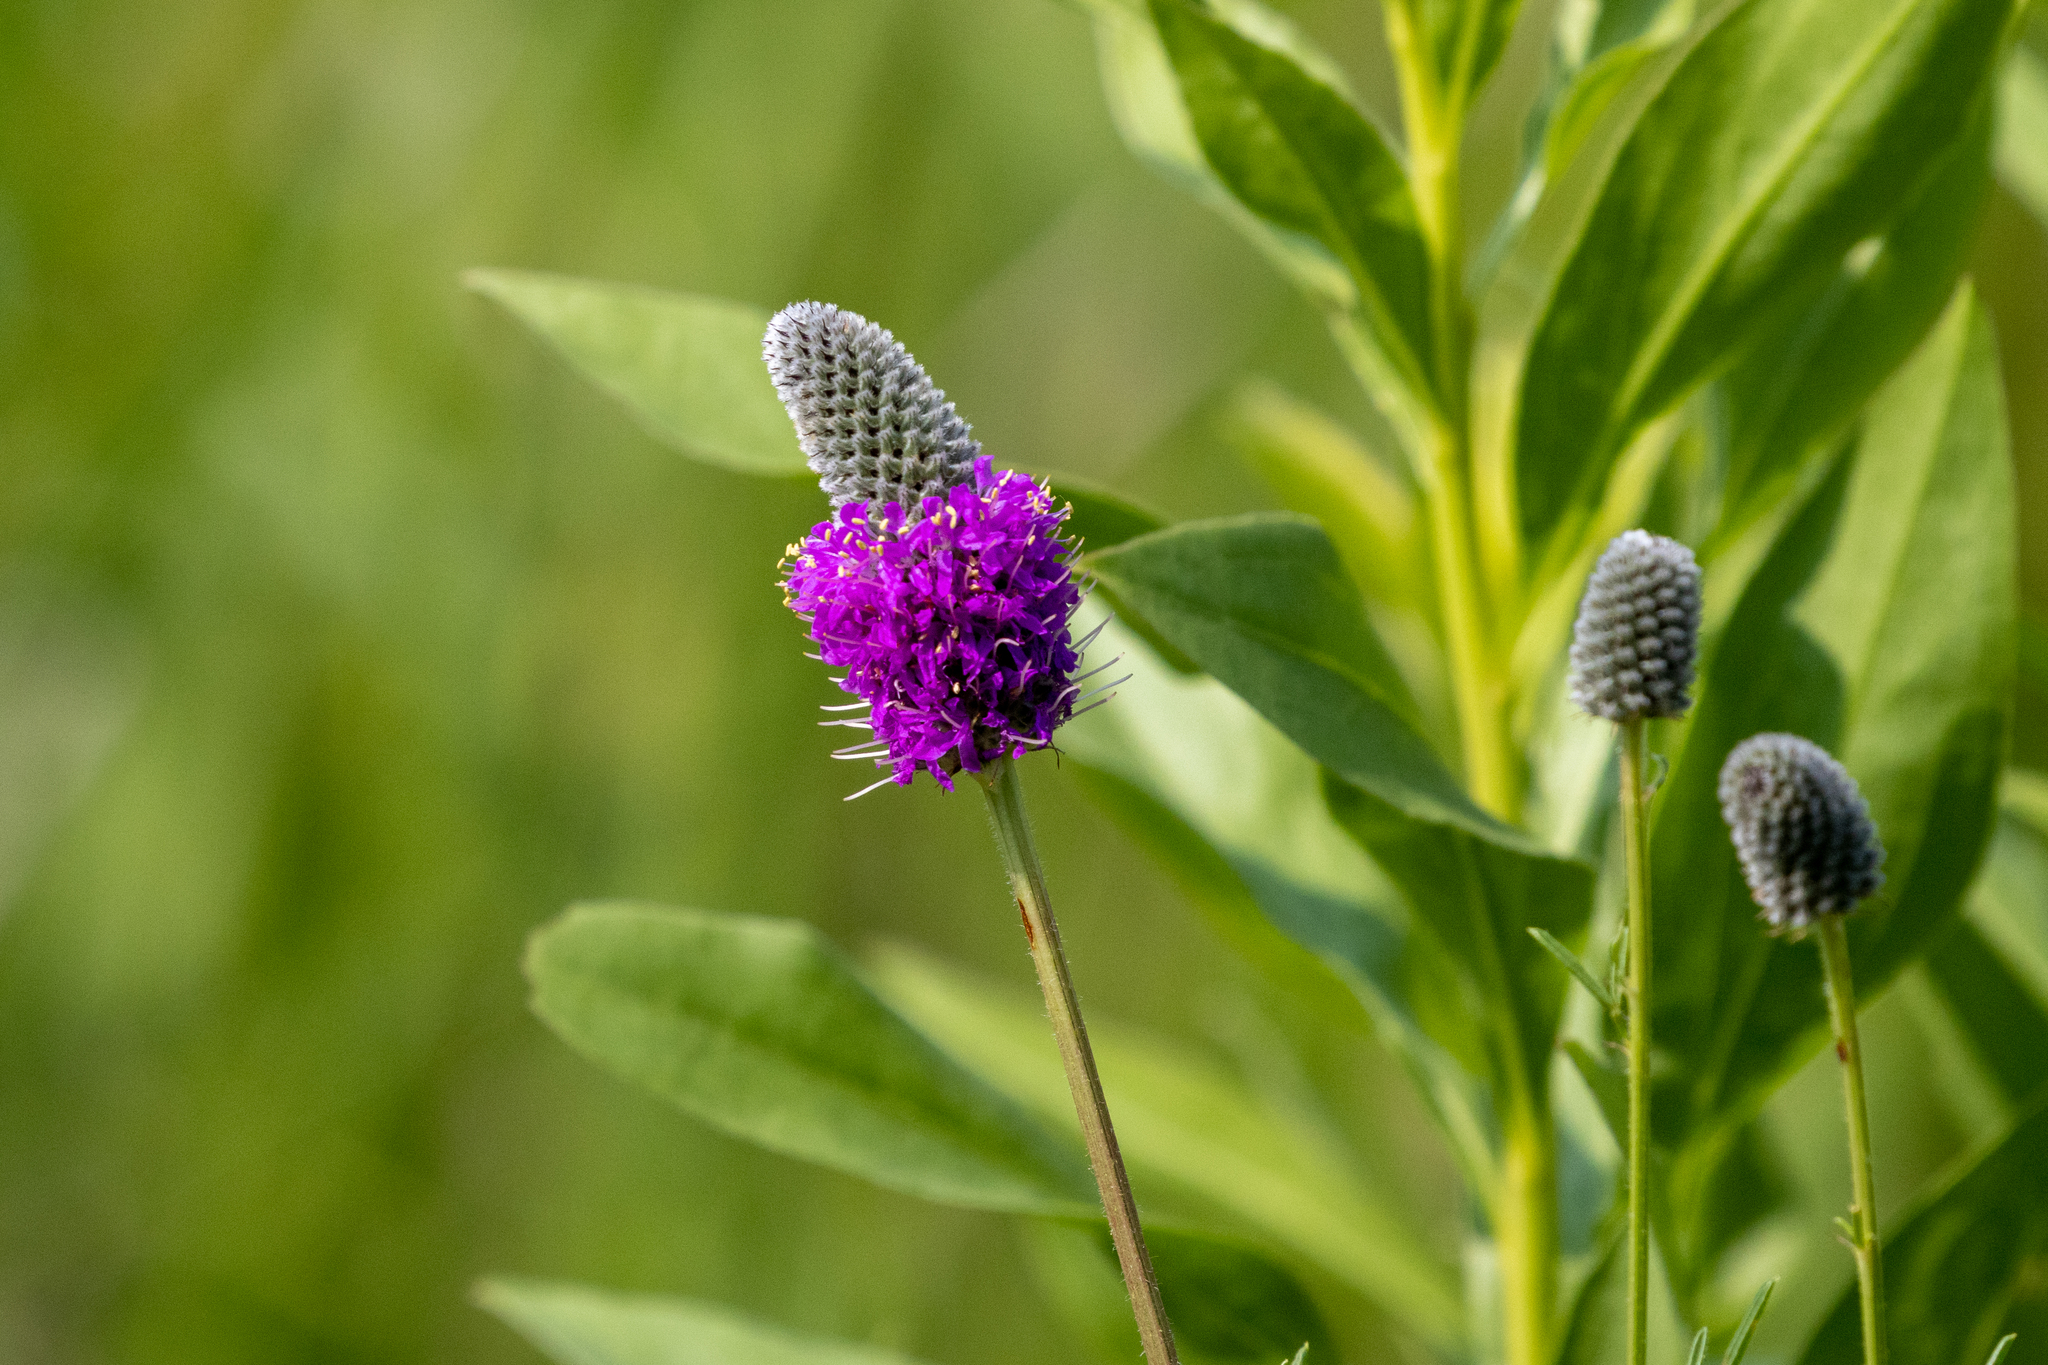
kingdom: Plantae
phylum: Tracheophyta
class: Magnoliopsida
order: Fabales
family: Fabaceae
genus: Dalea
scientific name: Dalea purpurea
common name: Purple prairie-clover
